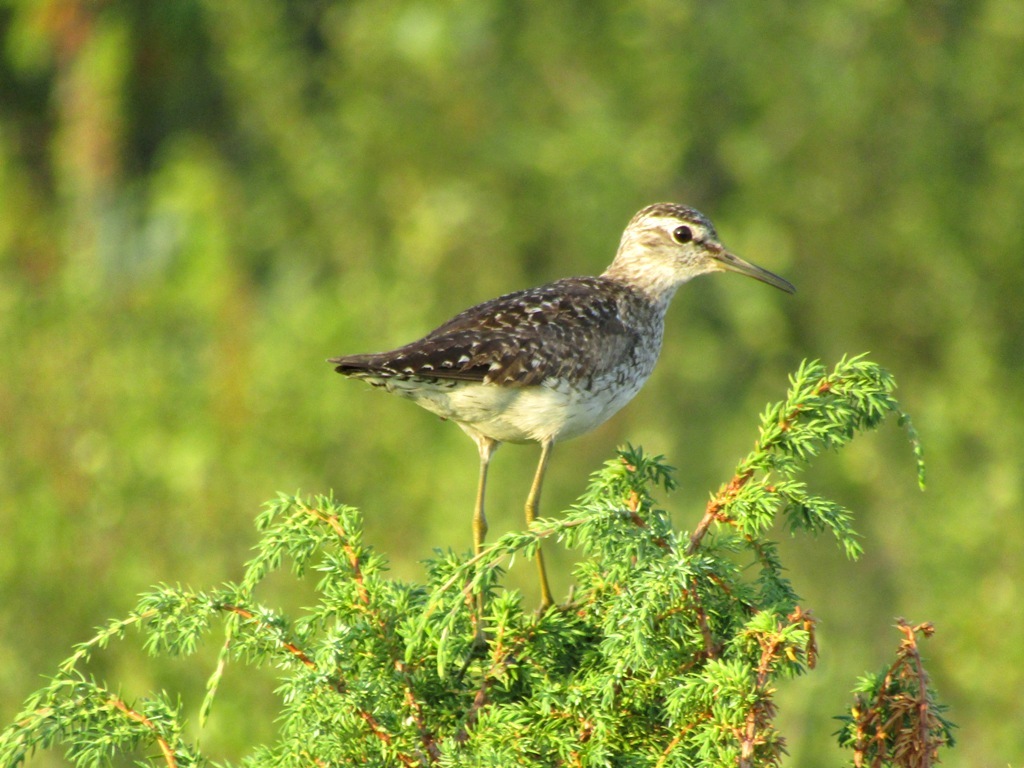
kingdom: Animalia
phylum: Chordata
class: Aves
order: Charadriiformes
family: Scolopacidae
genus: Tringa
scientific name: Tringa glareola
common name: Wood sandpiper
